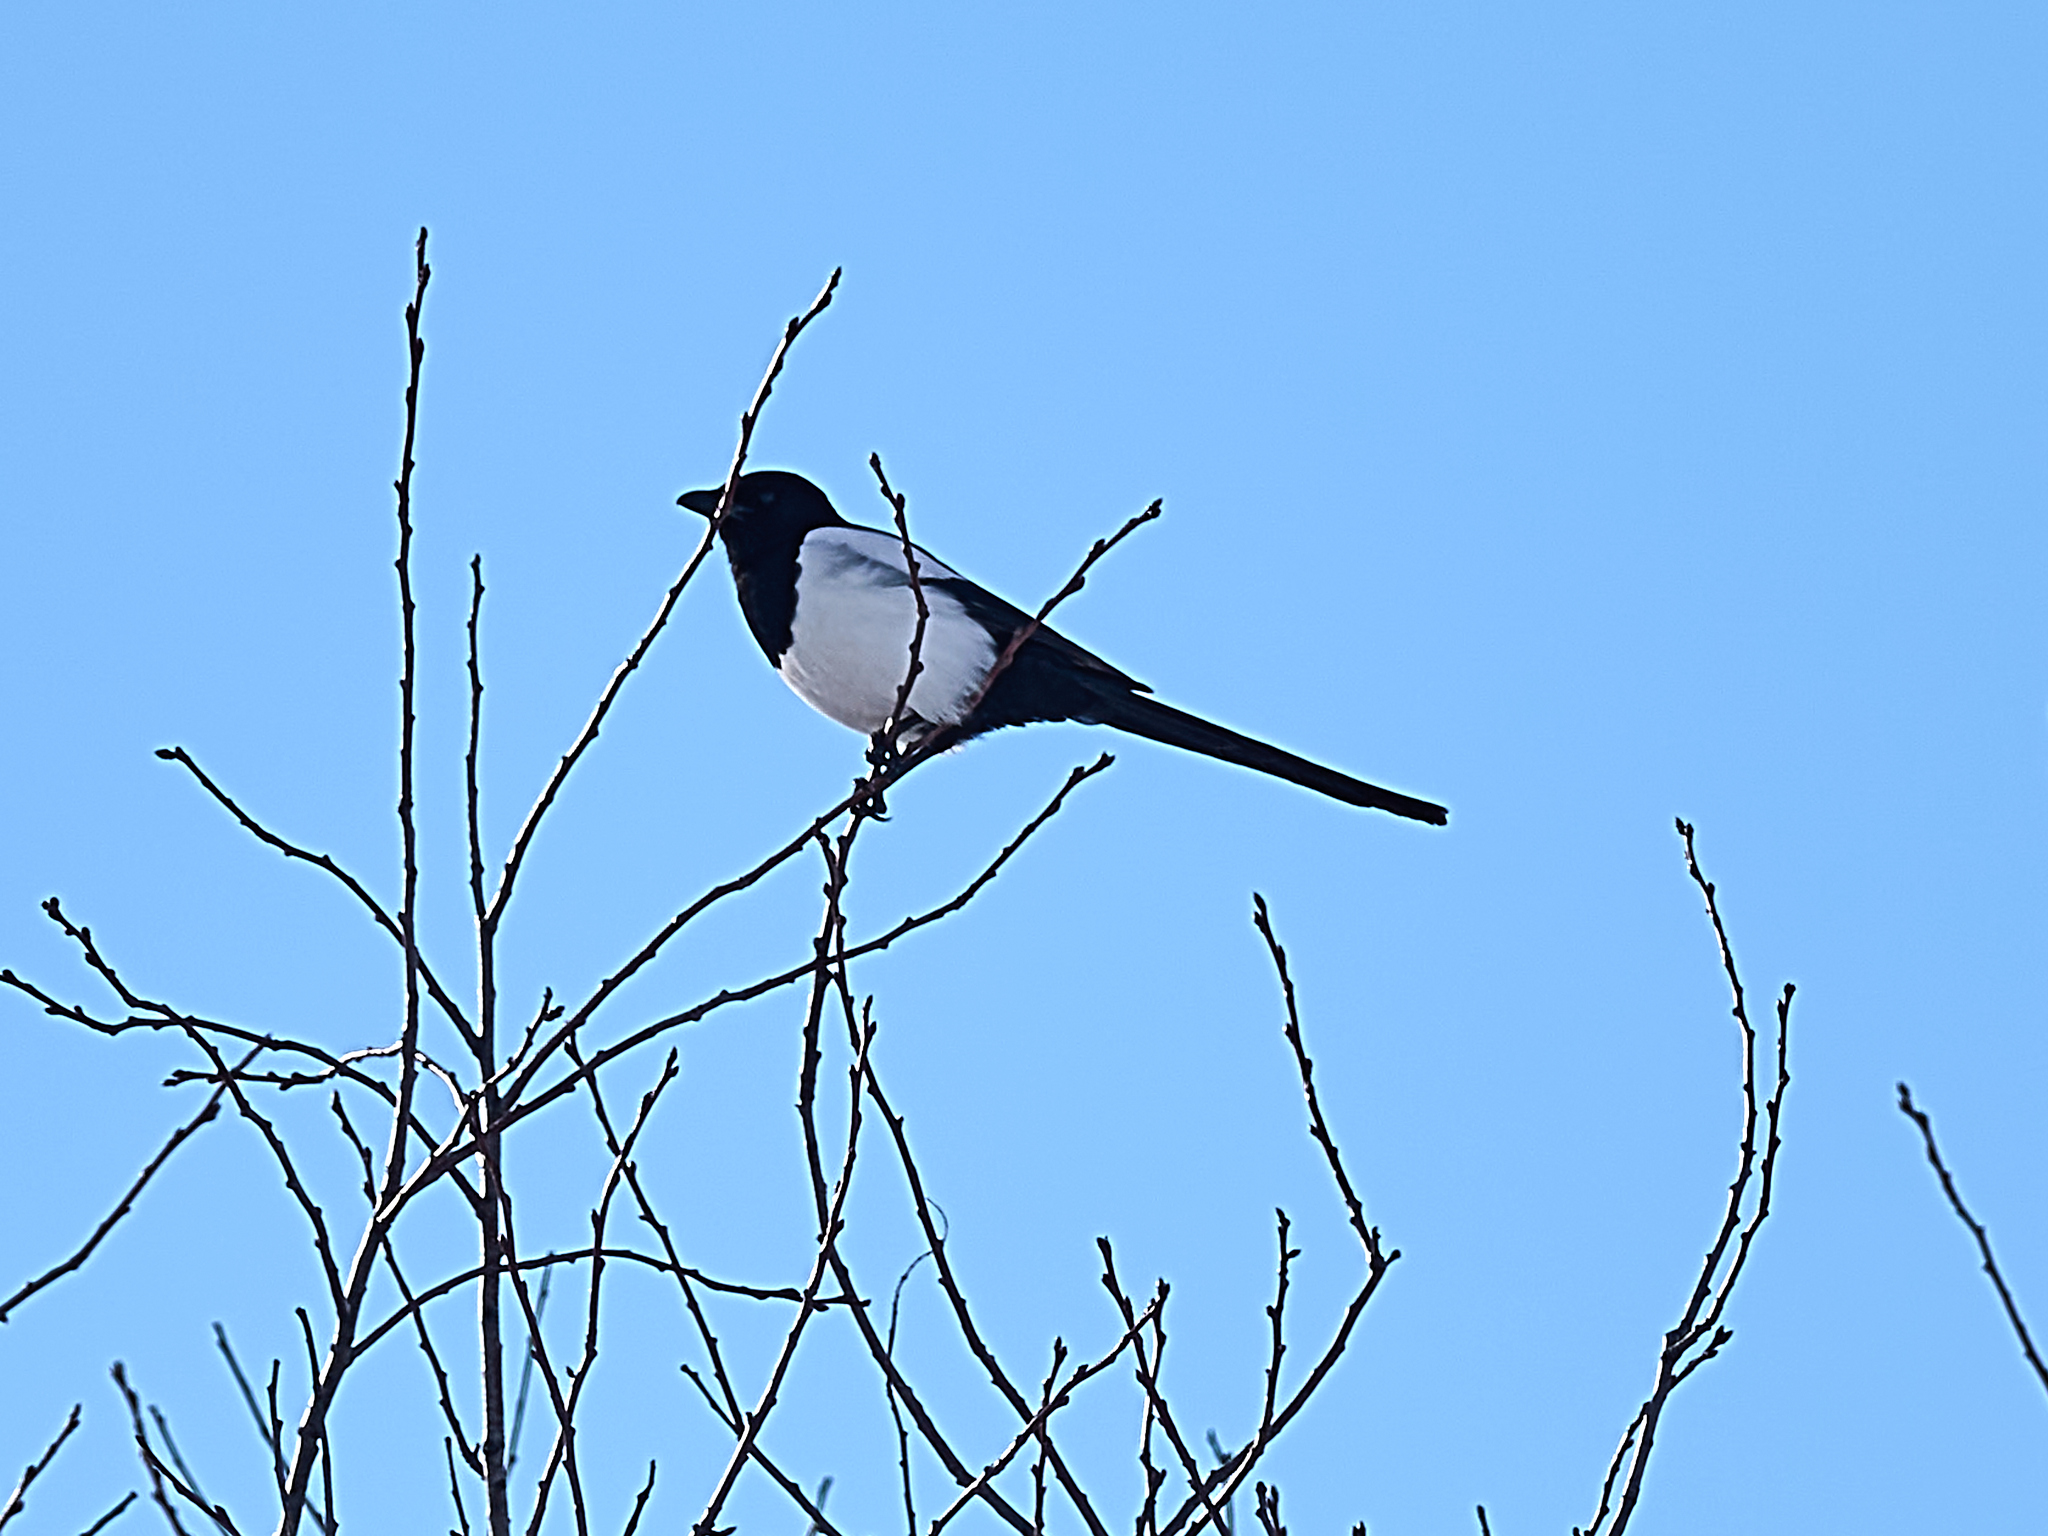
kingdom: Animalia
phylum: Chordata
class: Aves
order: Passeriformes
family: Corvidae
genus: Pica
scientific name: Pica pica
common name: Eurasian magpie
